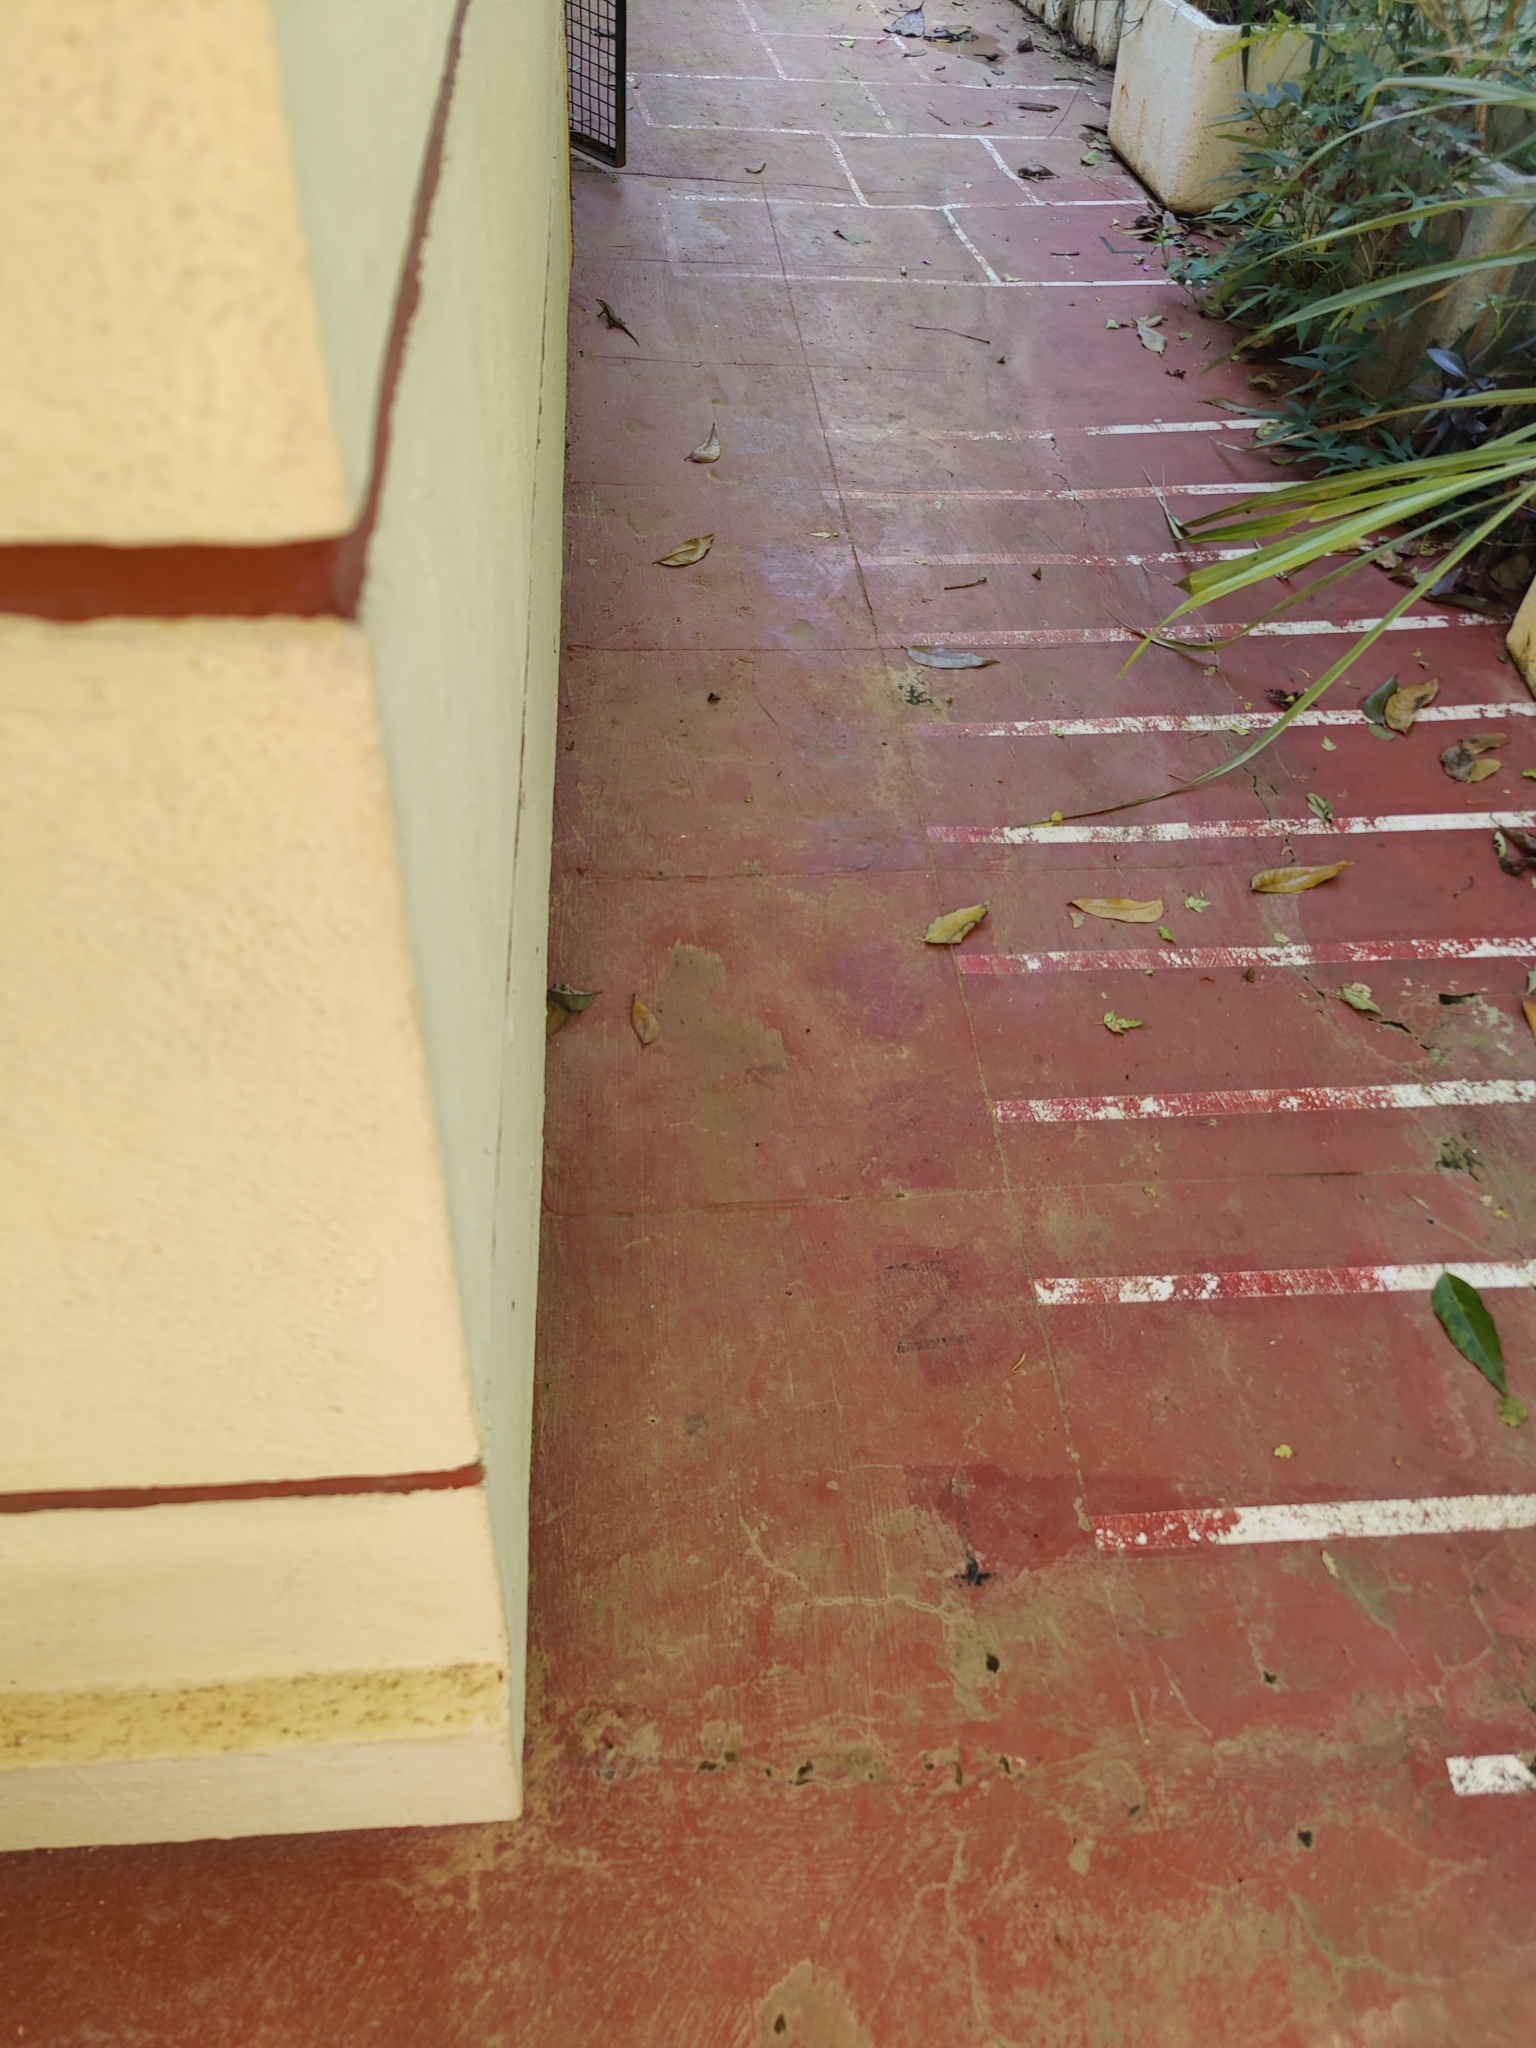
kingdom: Animalia
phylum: Chordata
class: Squamata
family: Scincidae
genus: Eutropis
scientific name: Eutropis carinata
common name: Keeled indian mabuya
